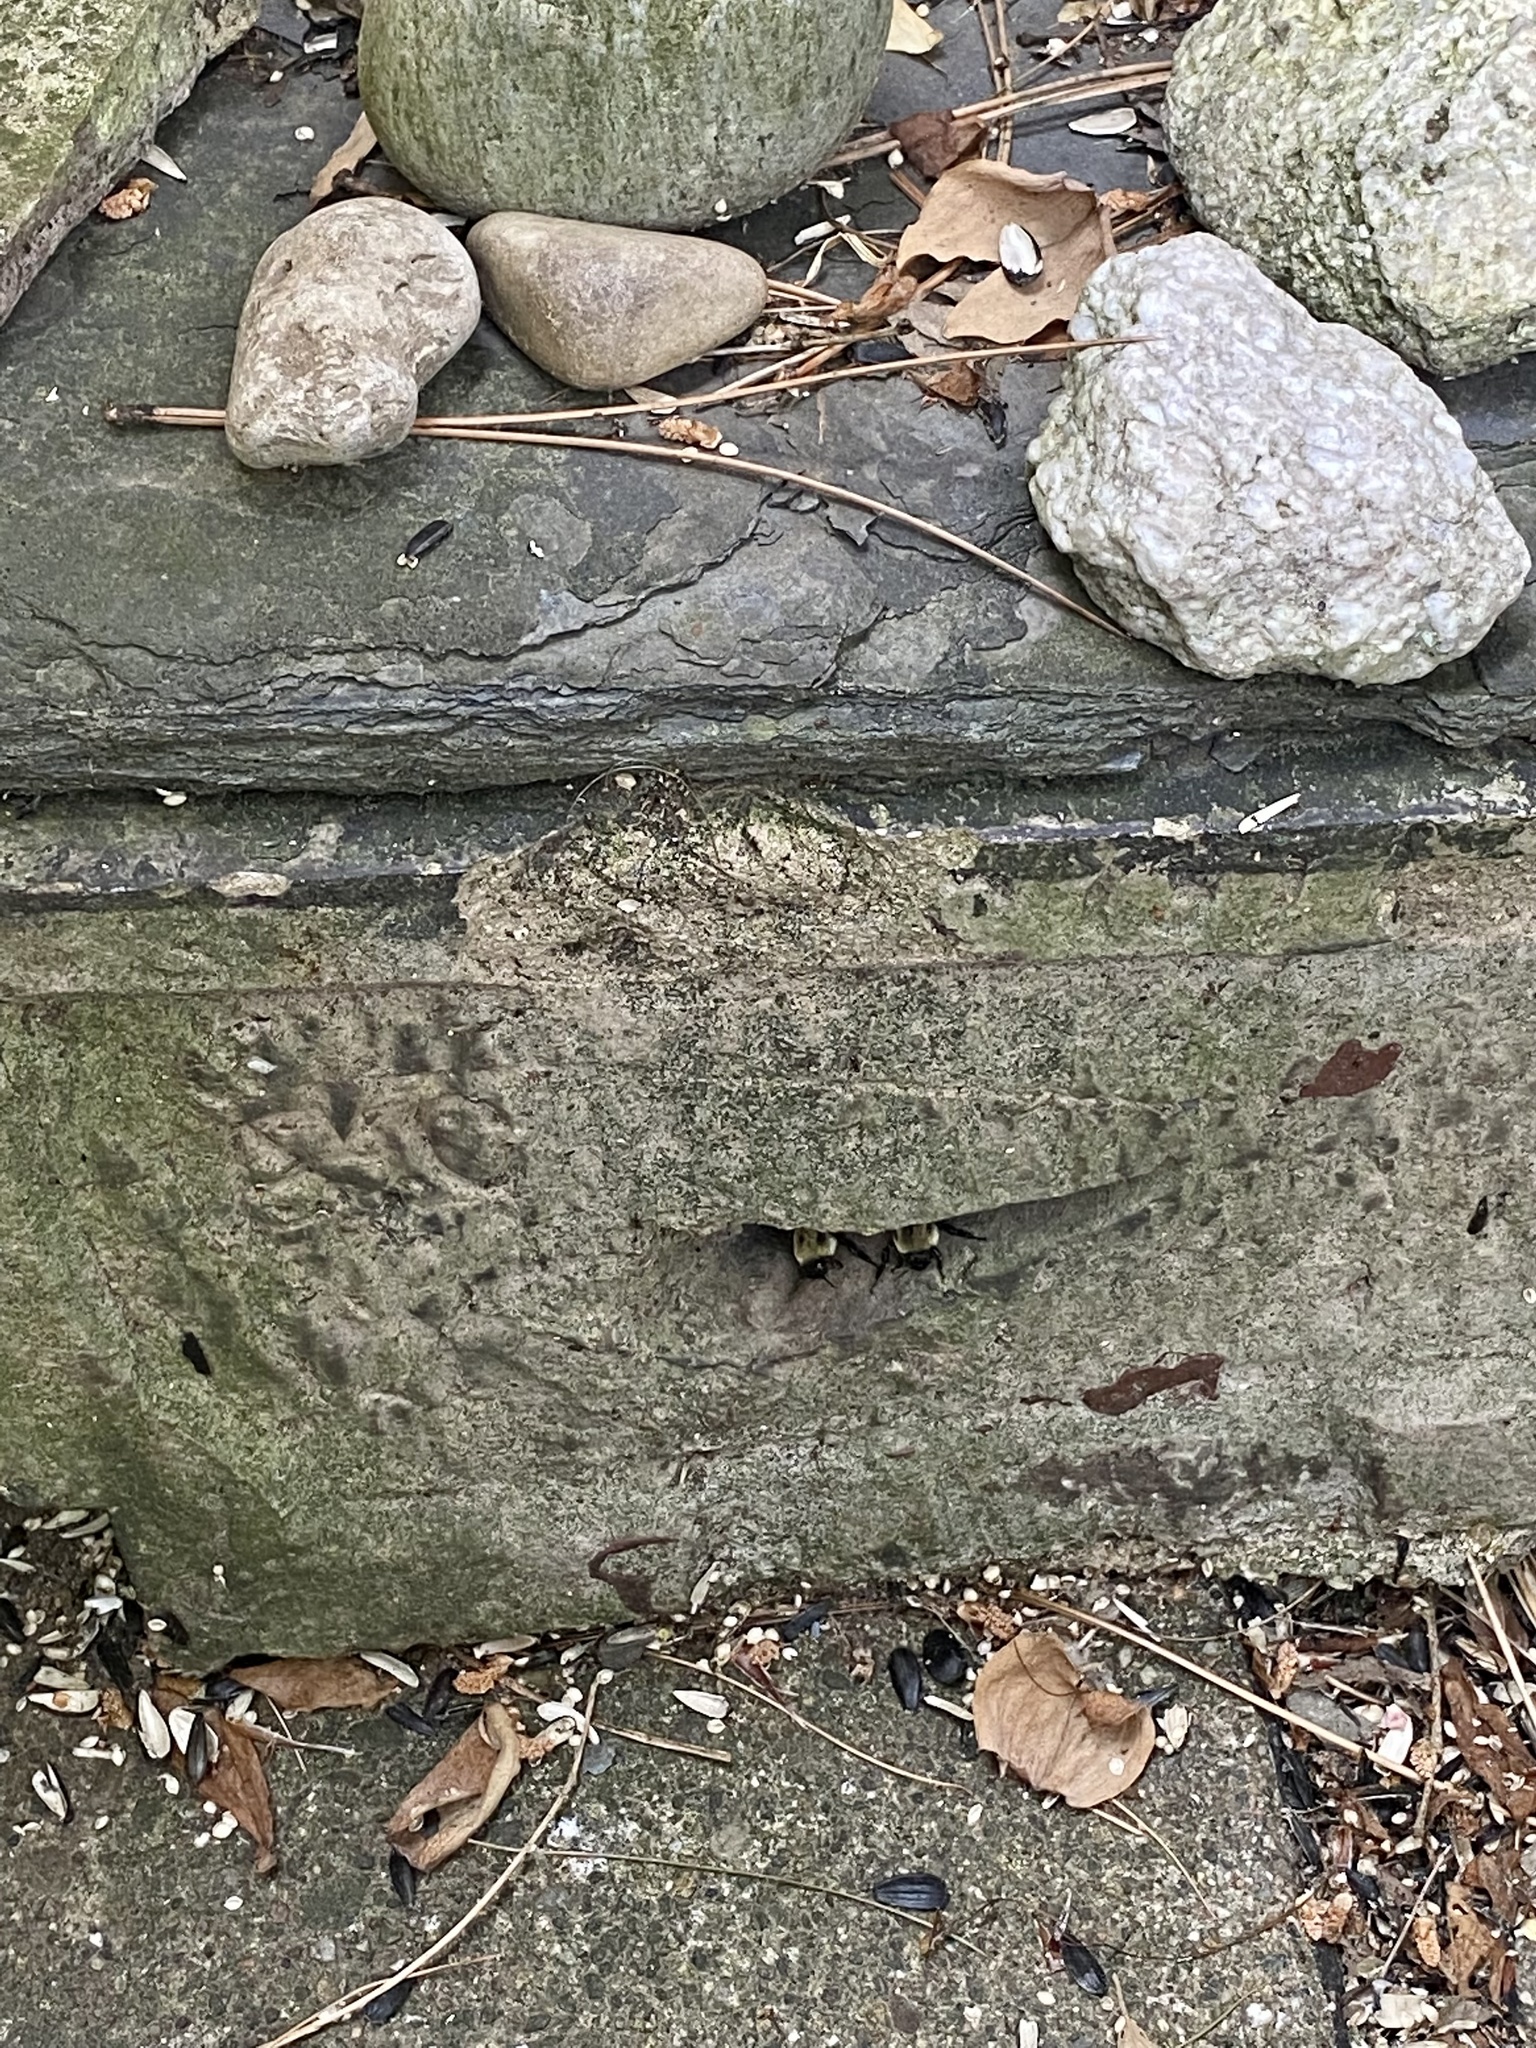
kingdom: Animalia
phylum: Arthropoda
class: Insecta
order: Hymenoptera
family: Apidae
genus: Bombus
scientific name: Bombus griseocollis
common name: Brown-belted bumble bee
